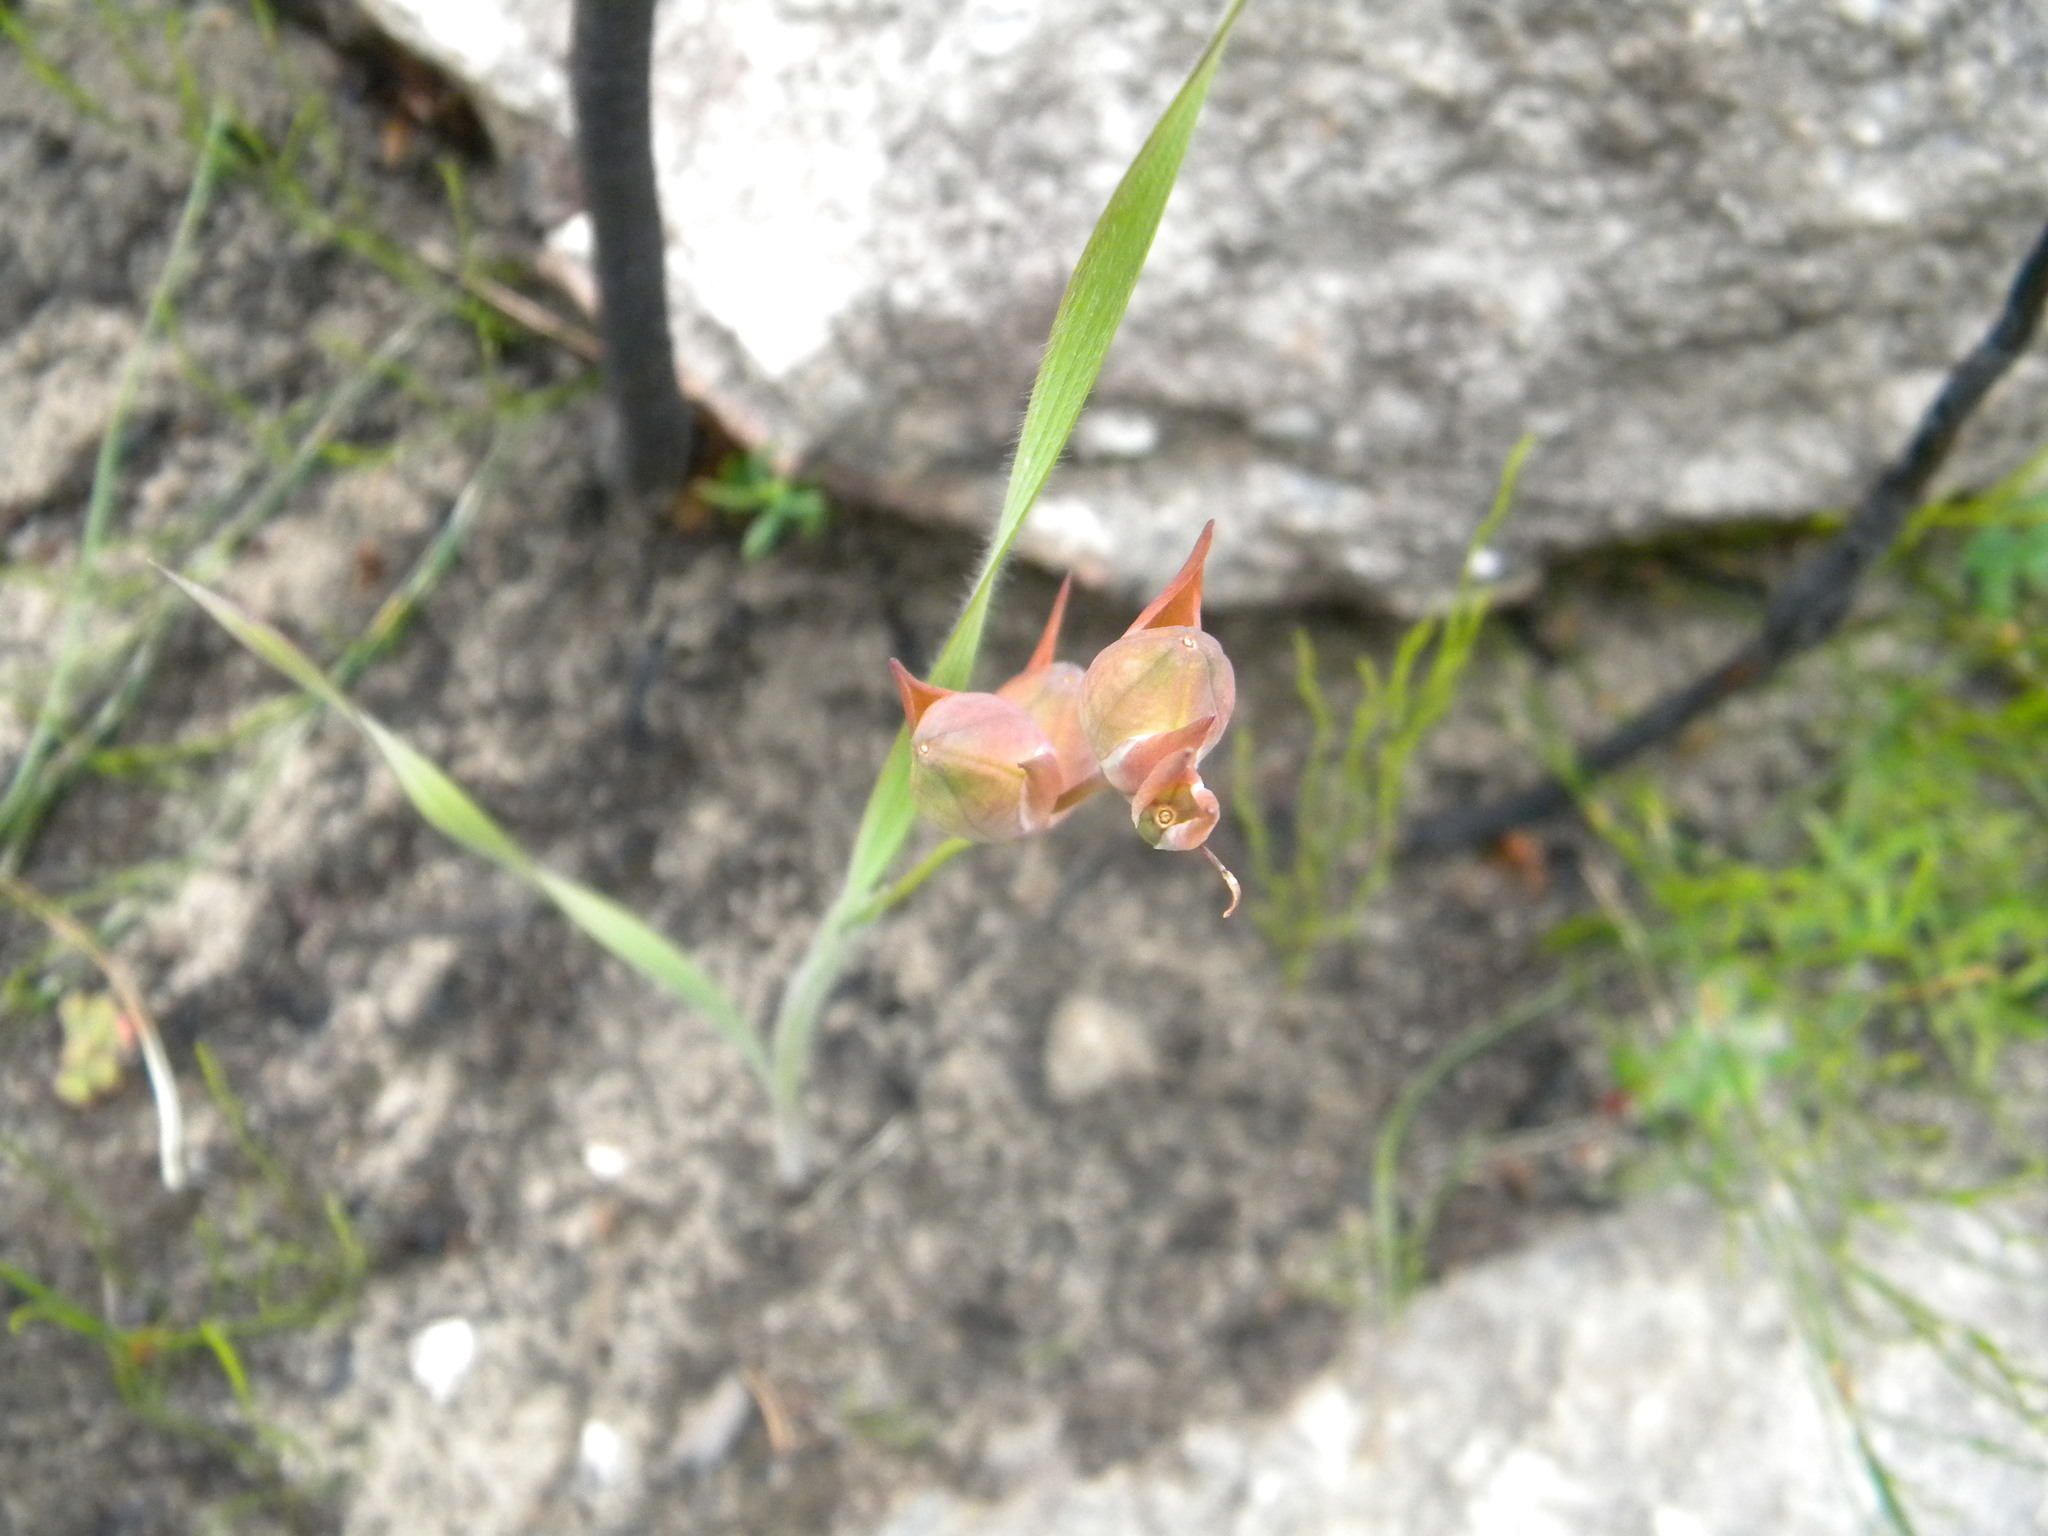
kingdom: Plantae
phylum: Tracheophyta
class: Liliopsida
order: Asparagales
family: Iridaceae
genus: Gladiolus
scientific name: Gladiolus hirsutus
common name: Small pink afrikaner
